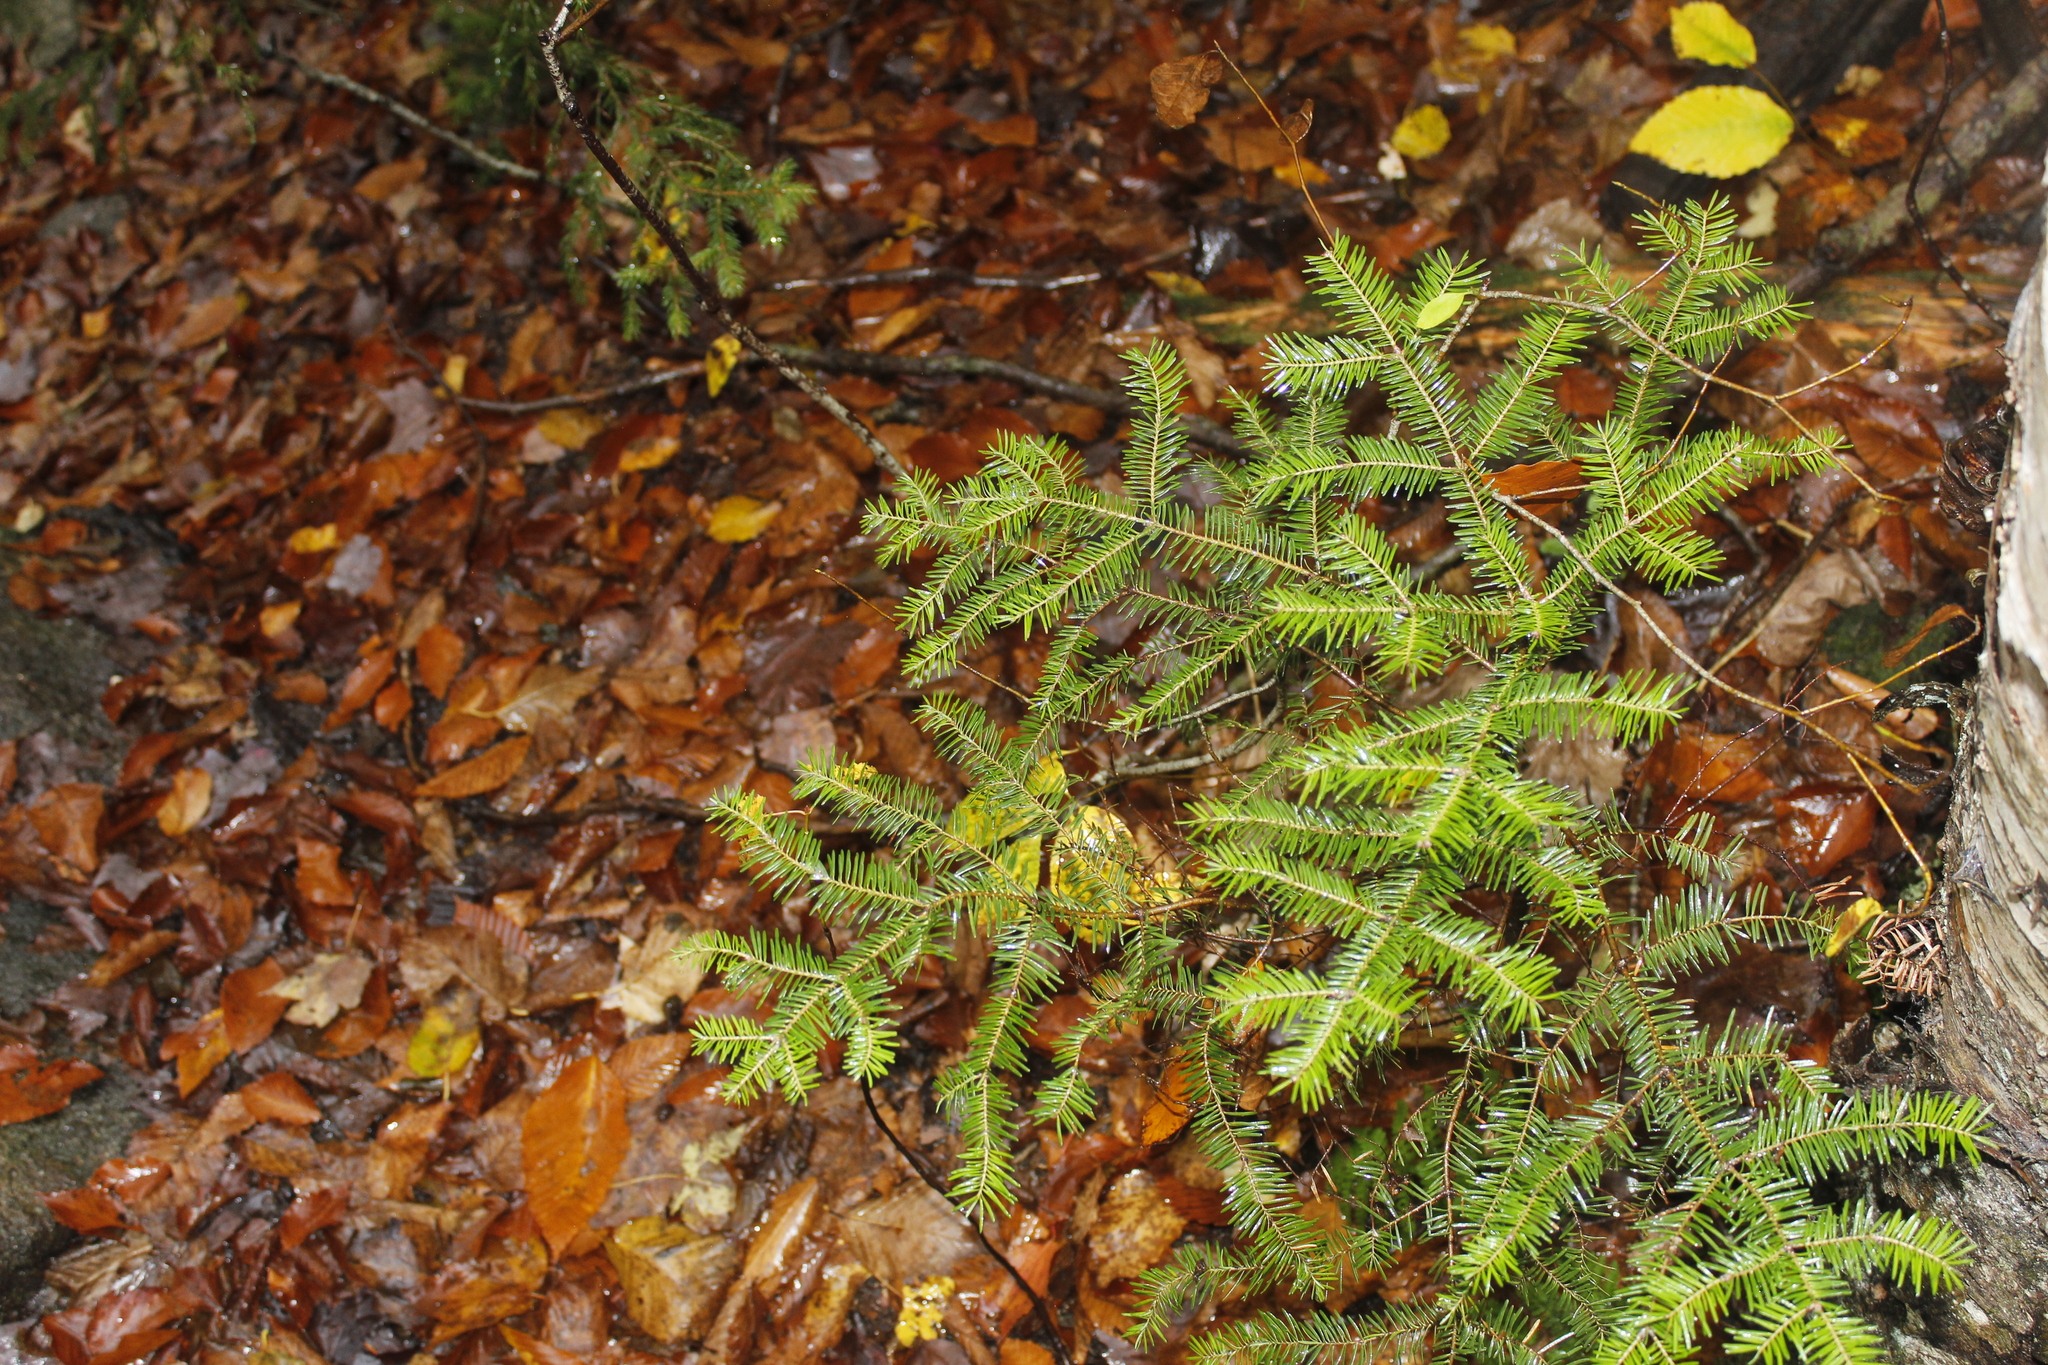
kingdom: Plantae
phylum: Tracheophyta
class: Pinopsida
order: Pinales
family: Pinaceae
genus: Abies
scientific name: Abies balsamea
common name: Balsam fir
